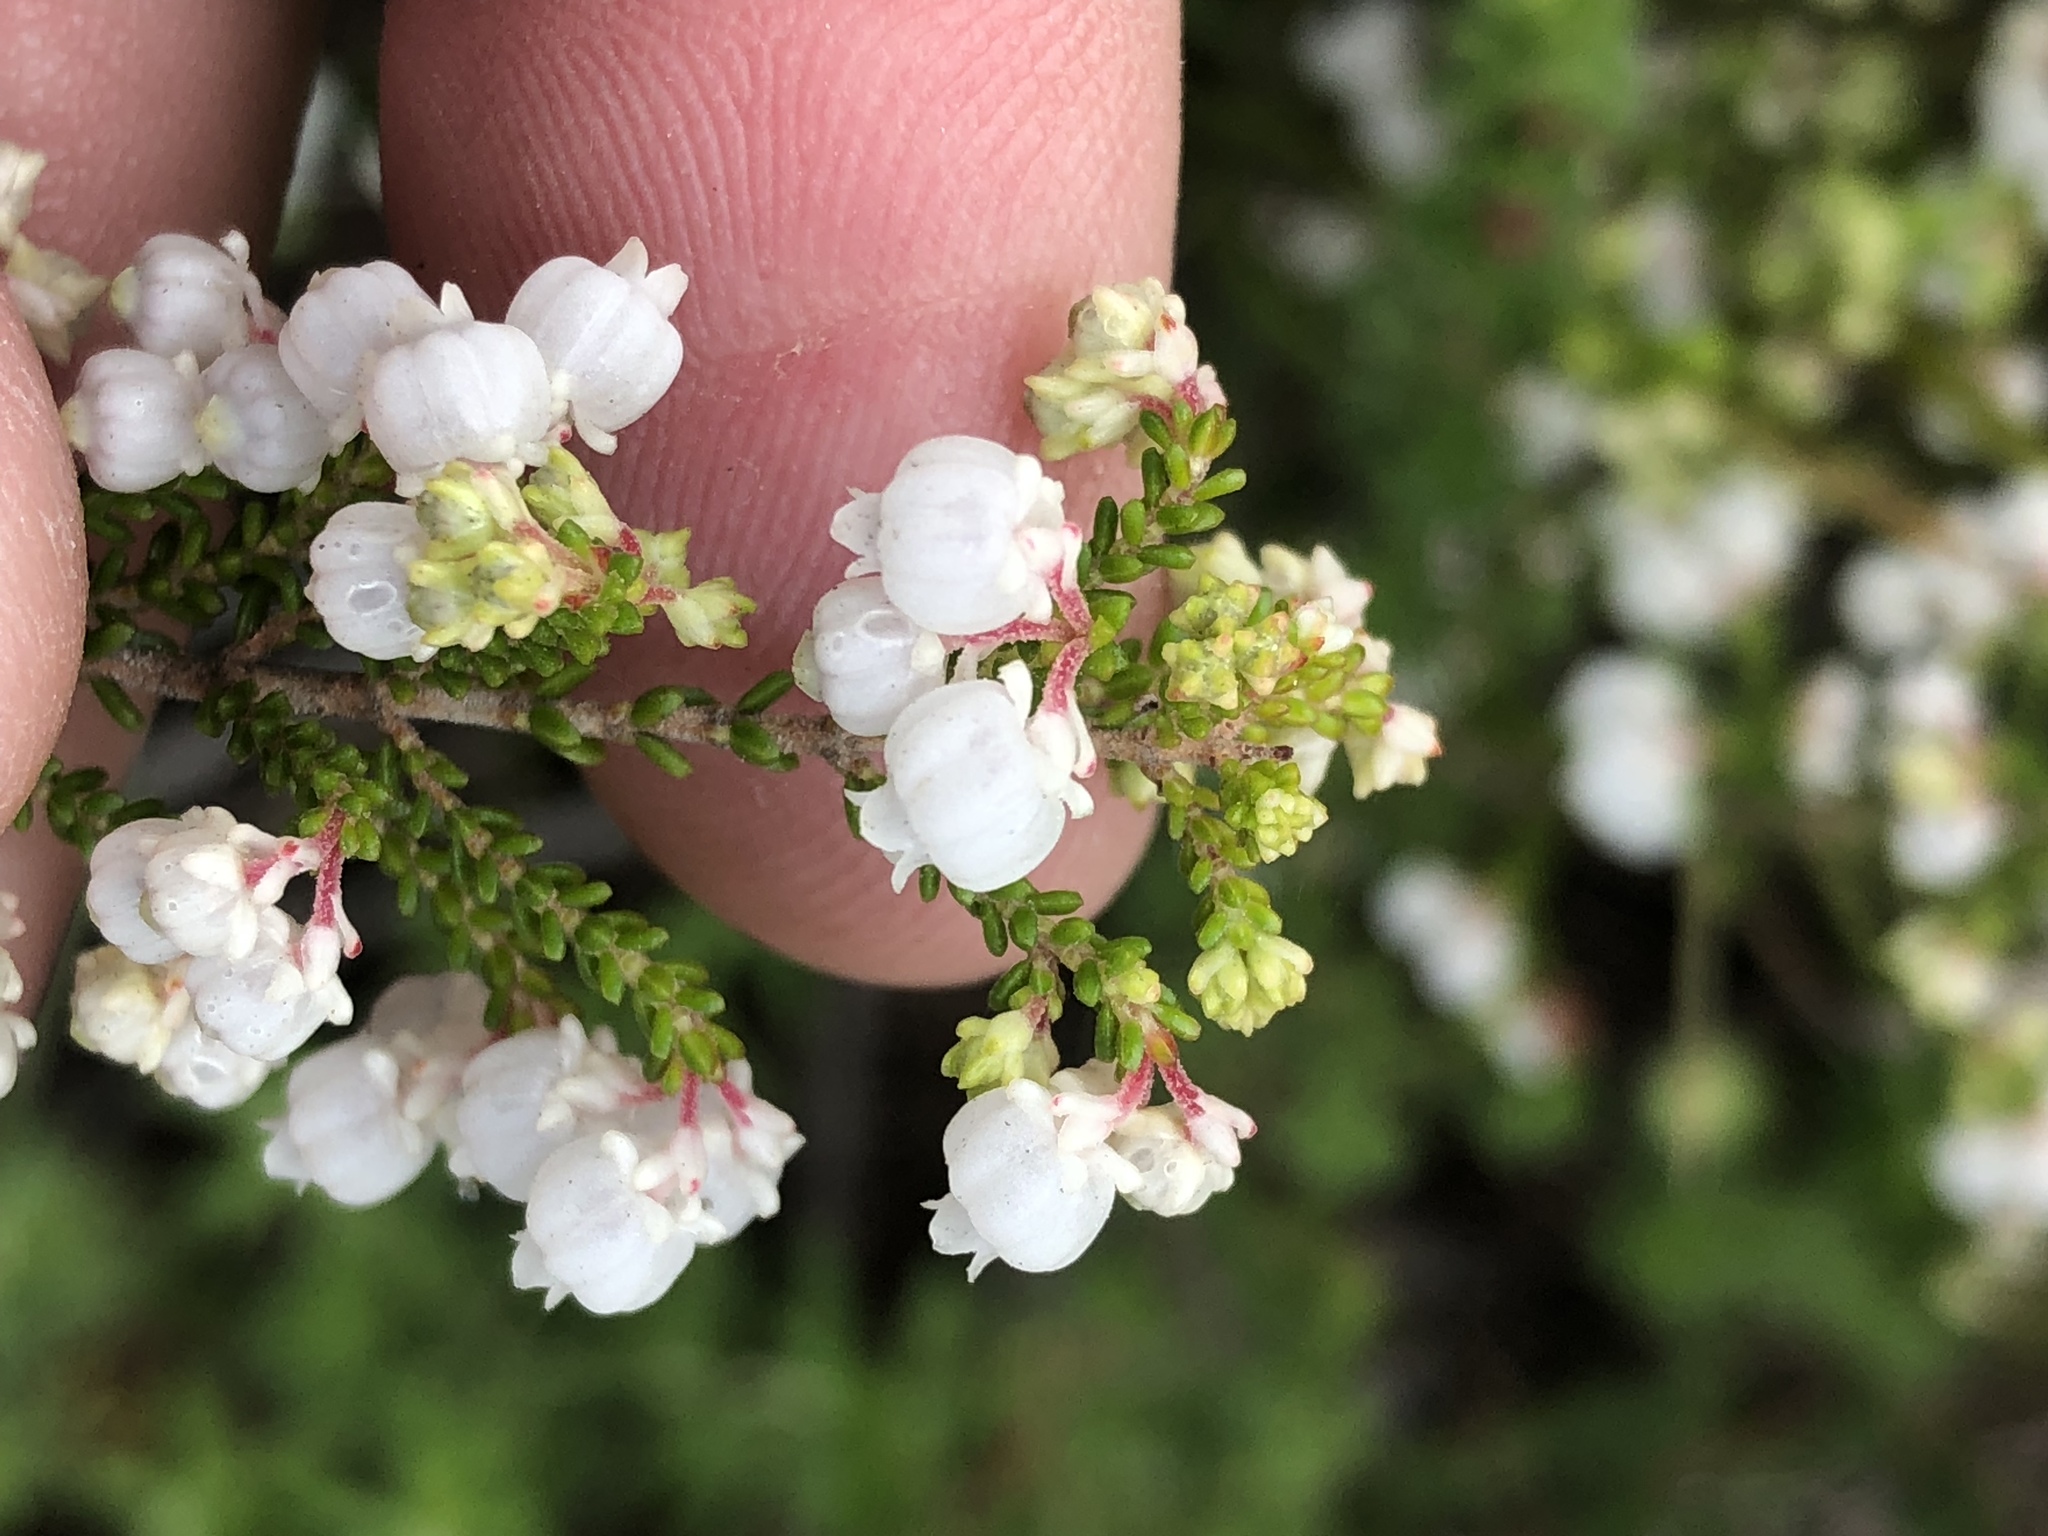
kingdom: Plantae
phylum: Tracheophyta
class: Magnoliopsida
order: Ericales
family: Ericaceae
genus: Erica
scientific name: Erica formosa
